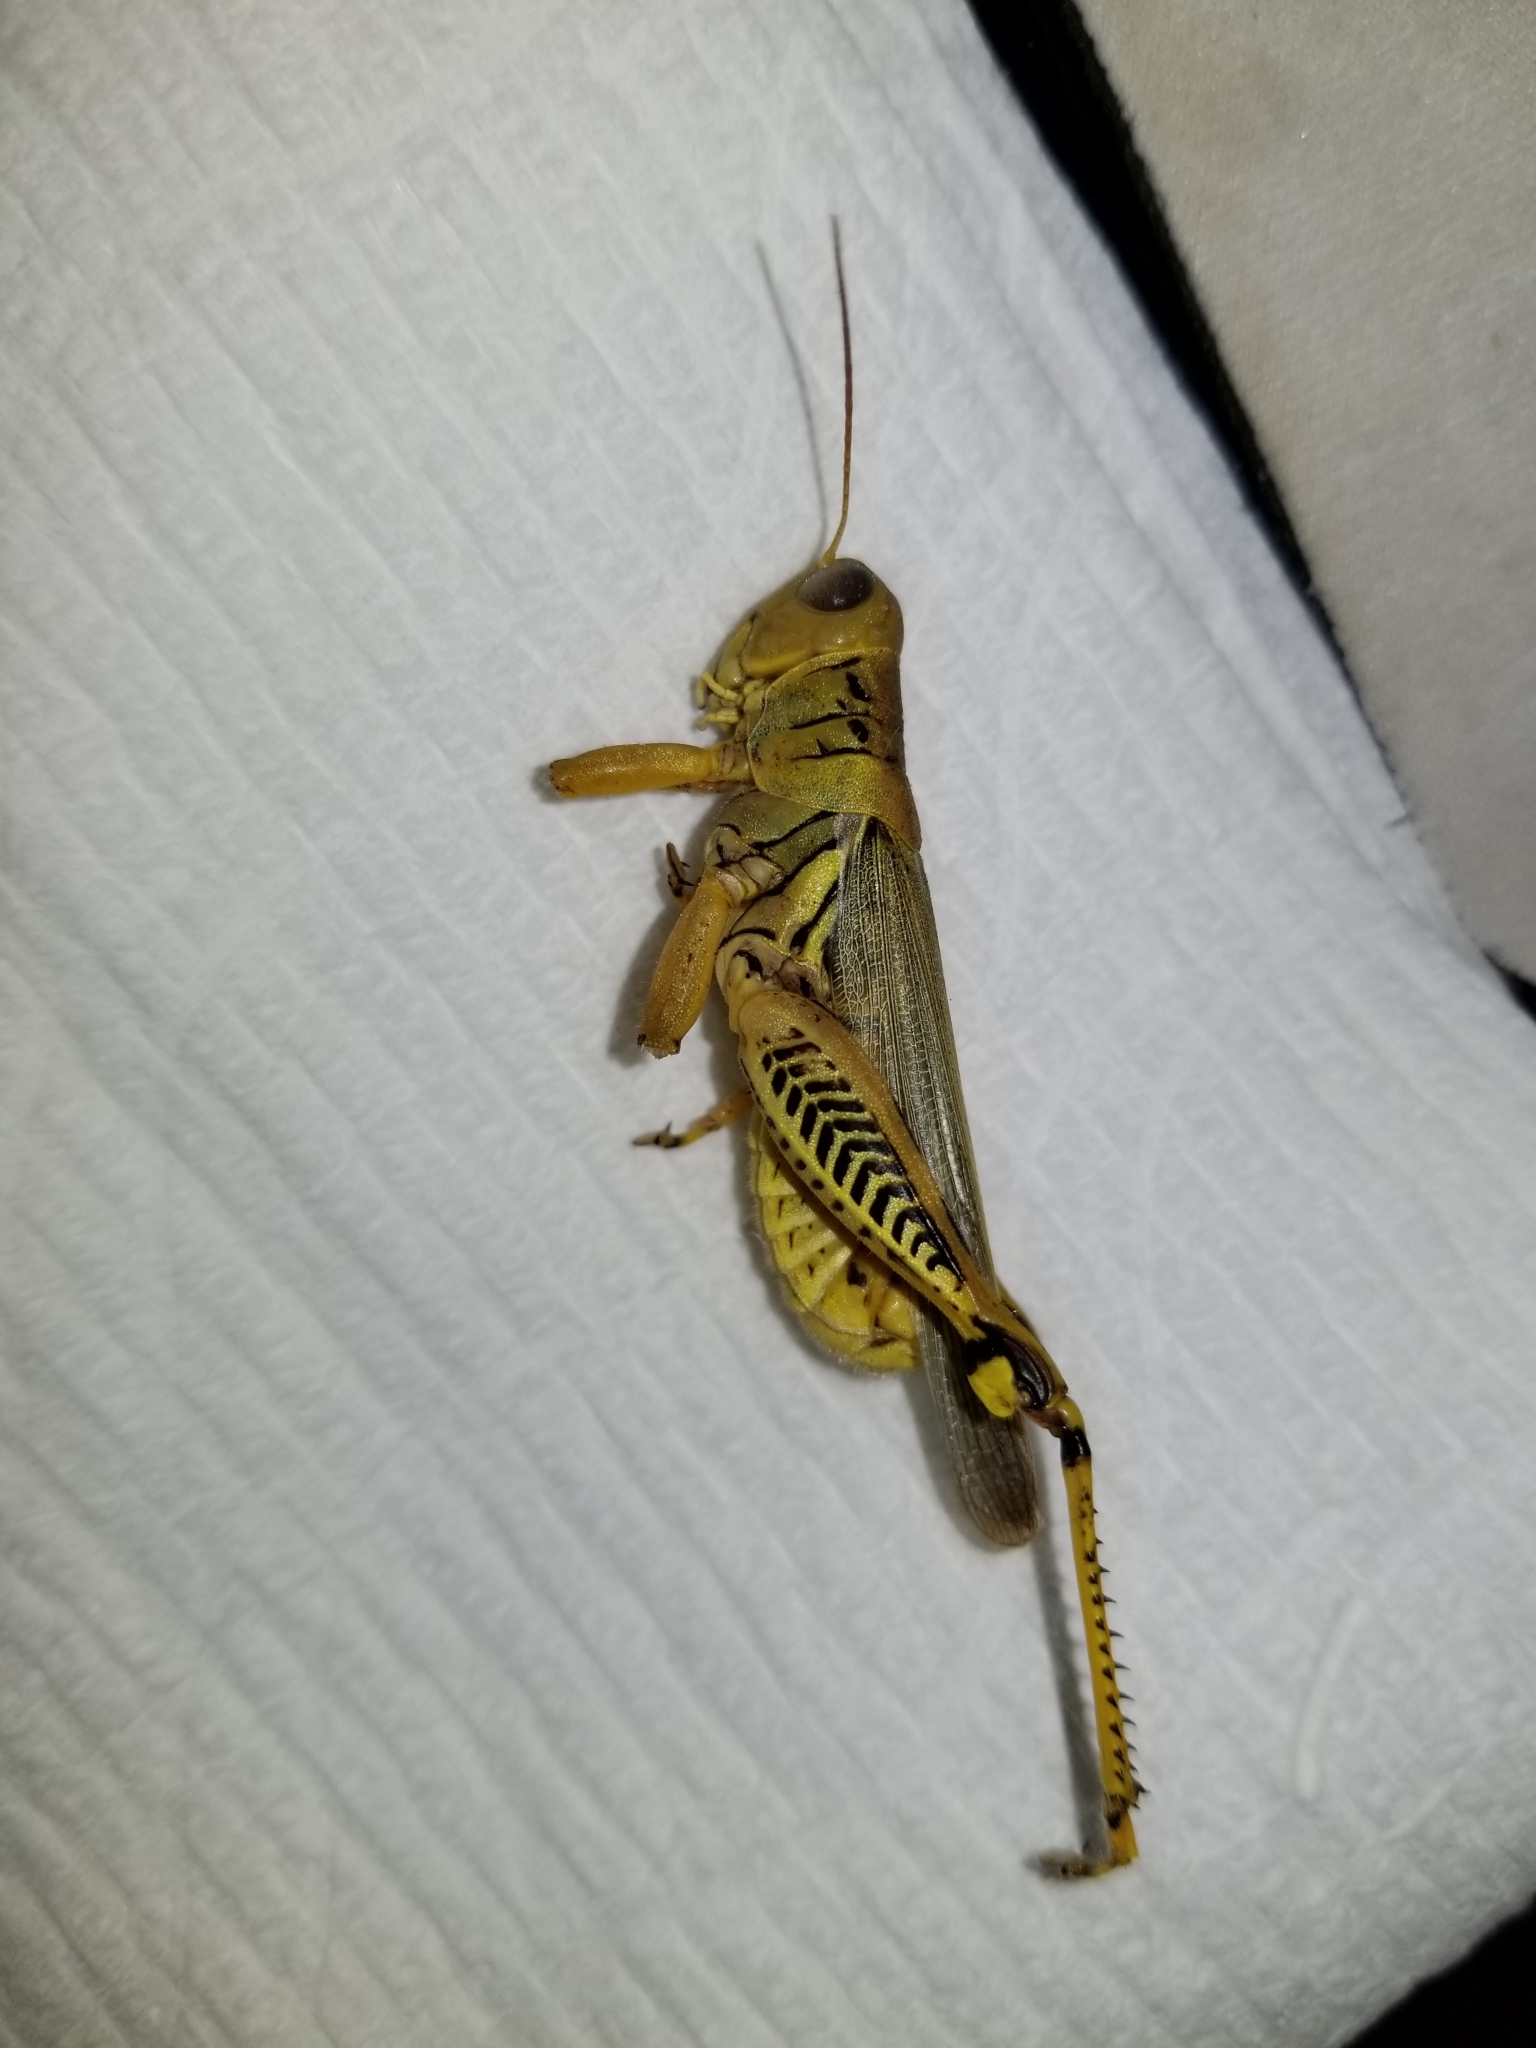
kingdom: Animalia
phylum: Arthropoda
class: Insecta
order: Orthoptera
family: Acrididae
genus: Melanoplus
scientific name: Melanoplus differentialis
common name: Differential grasshopper
